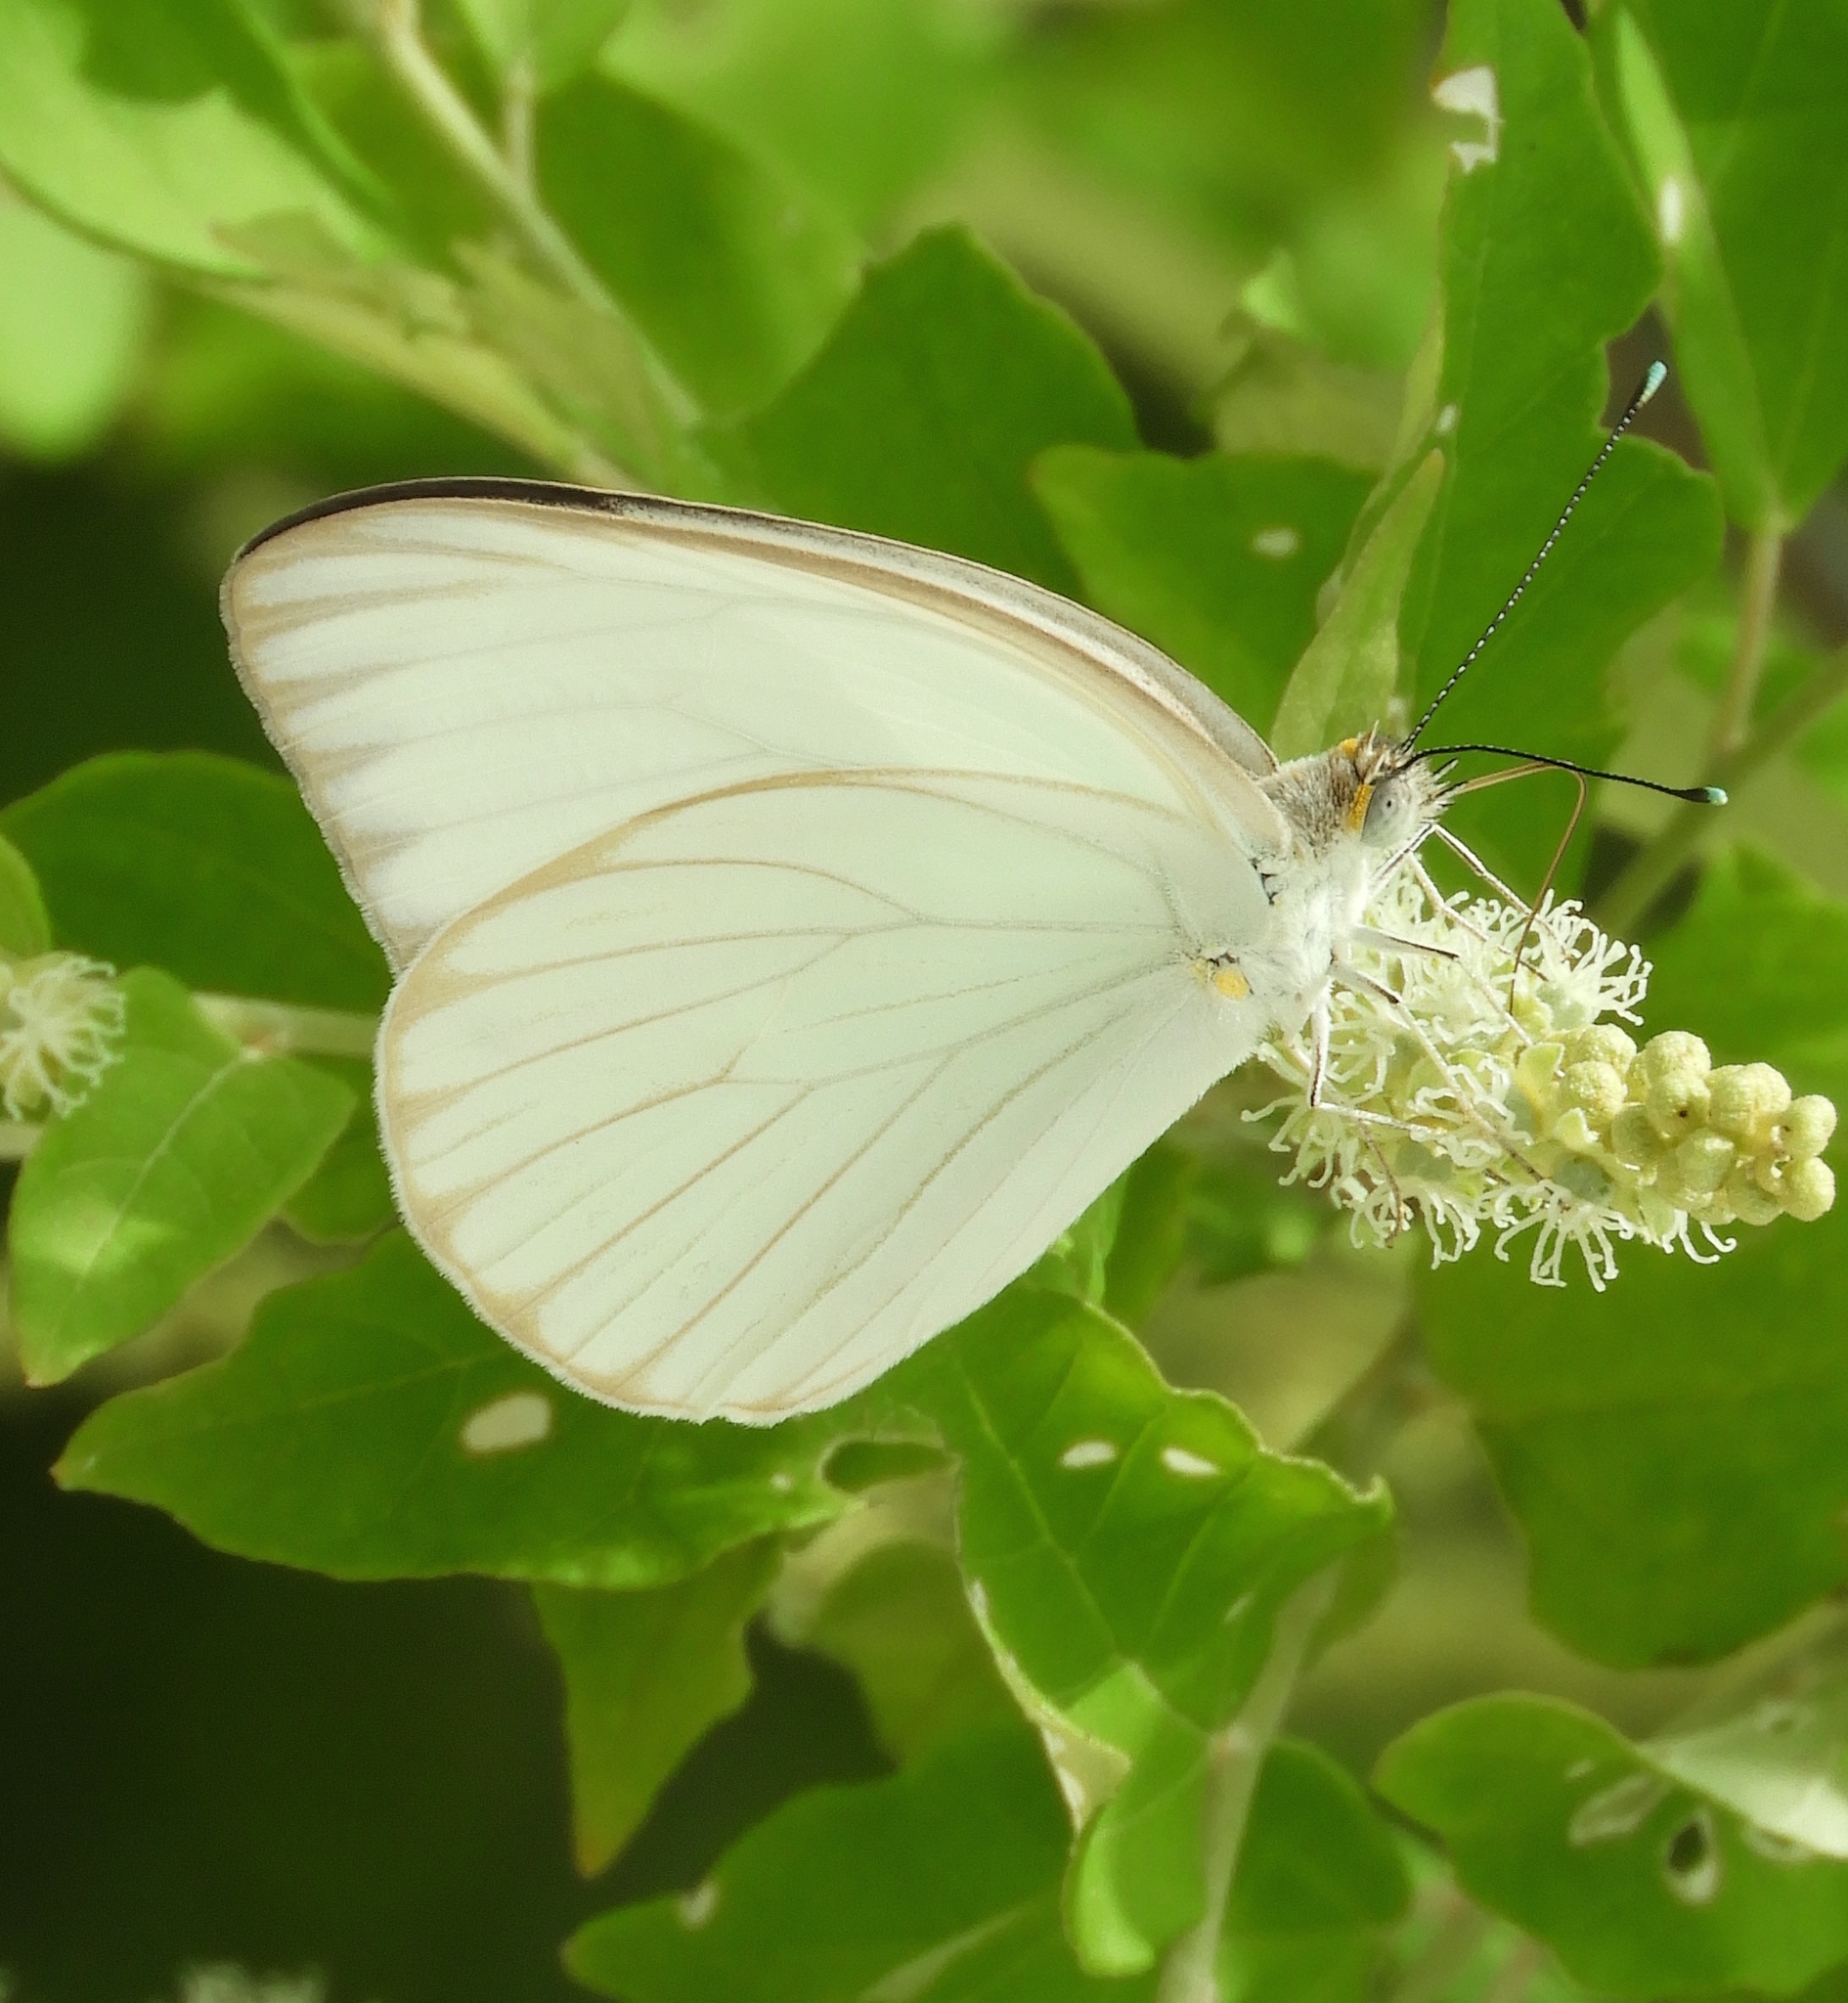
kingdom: Animalia
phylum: Arthropoda
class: Insecta
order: Lepidoptera
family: Pieridae
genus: Ascia
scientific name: Ascia monuste
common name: Great southern white
